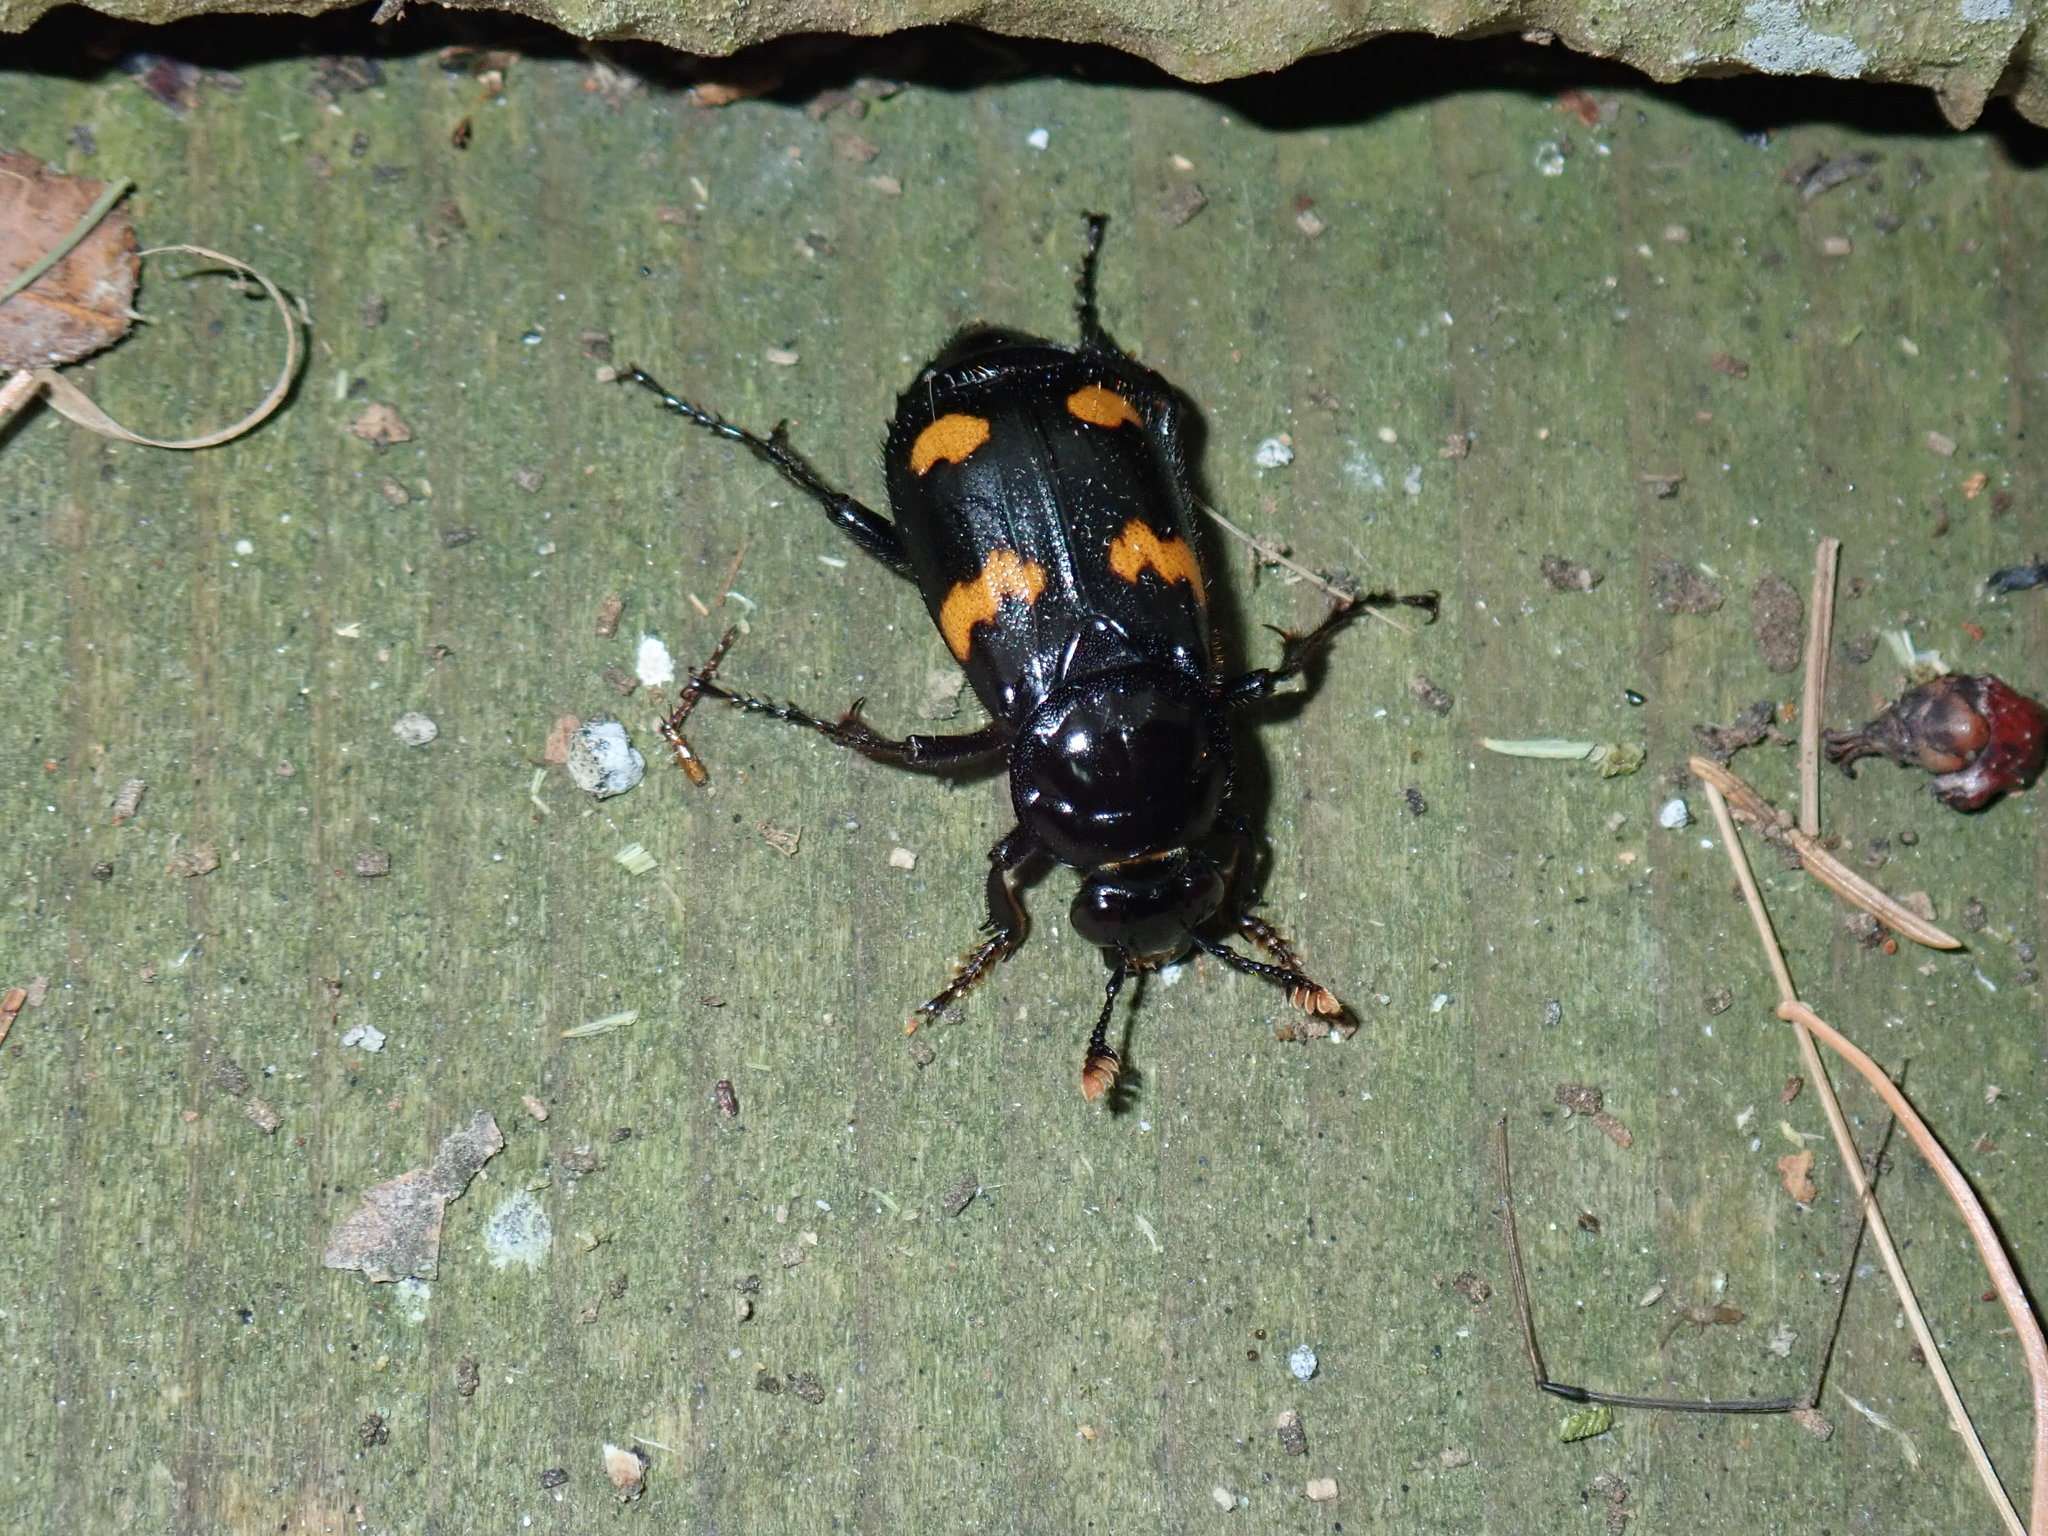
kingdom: Animalia
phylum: Arthropoda
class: Insecta
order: Coleoptera
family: Staphylinidae
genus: Nicrophorus
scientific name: Nicrophorus orbicollis
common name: Roundneck sexton beetle
